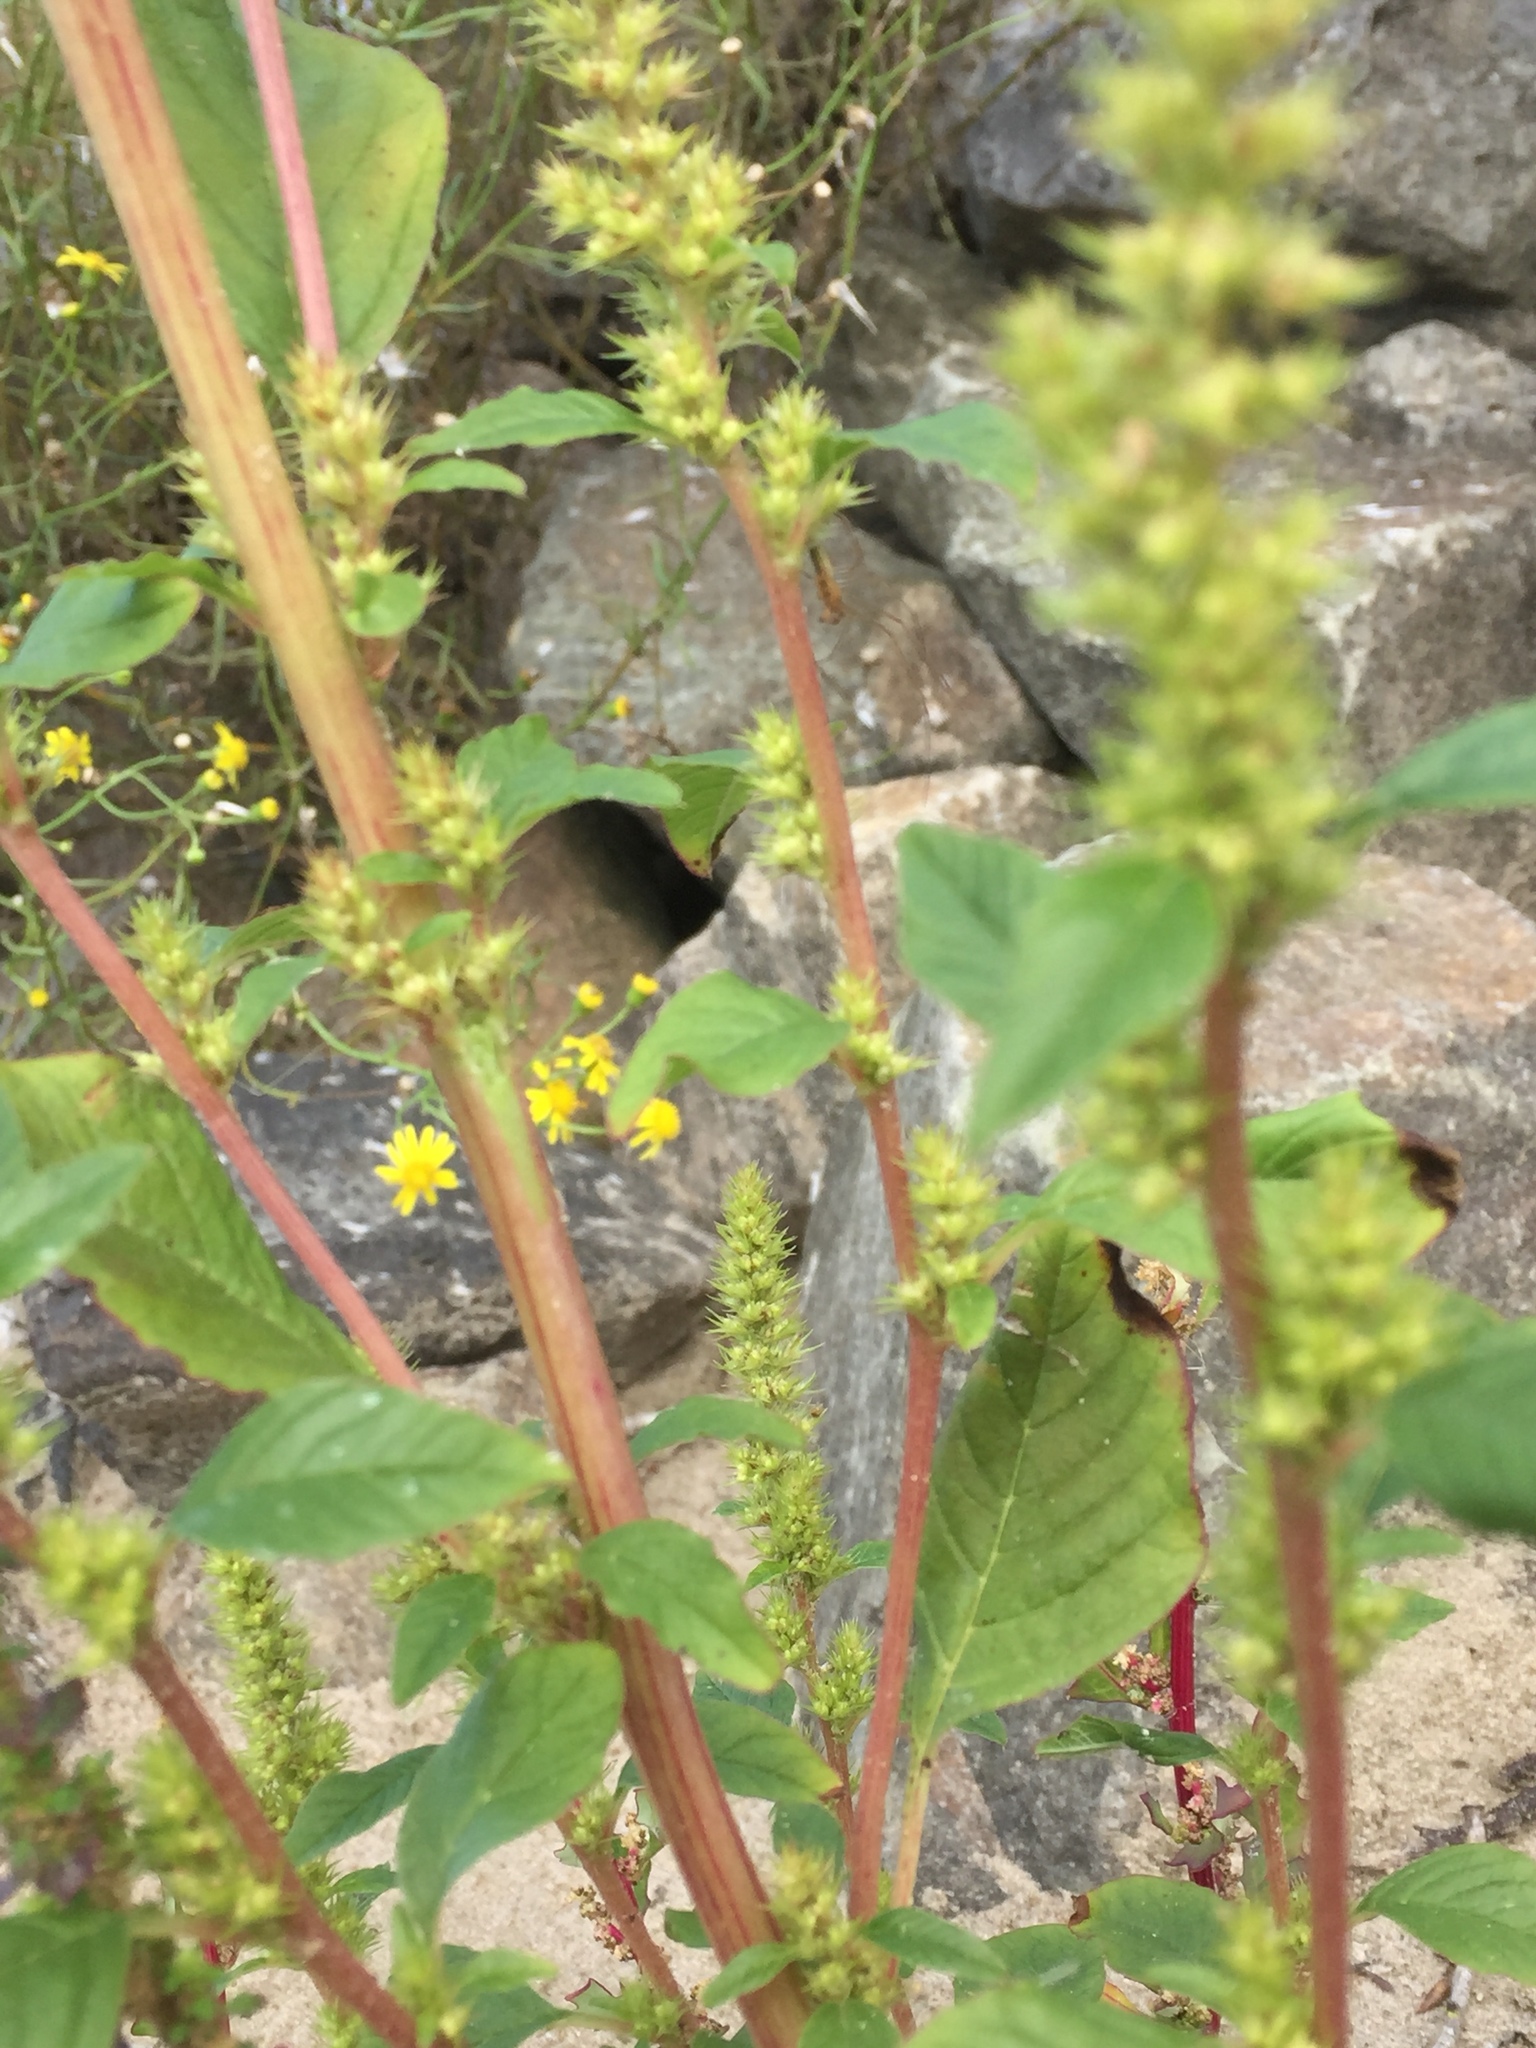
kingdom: Plantae
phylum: Tracheophyta
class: Magnoliopsida
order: Caryophyllales
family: Amaranthaceae
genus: Amaranthus
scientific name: Amaranthus hybridus
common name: Green amaranth
